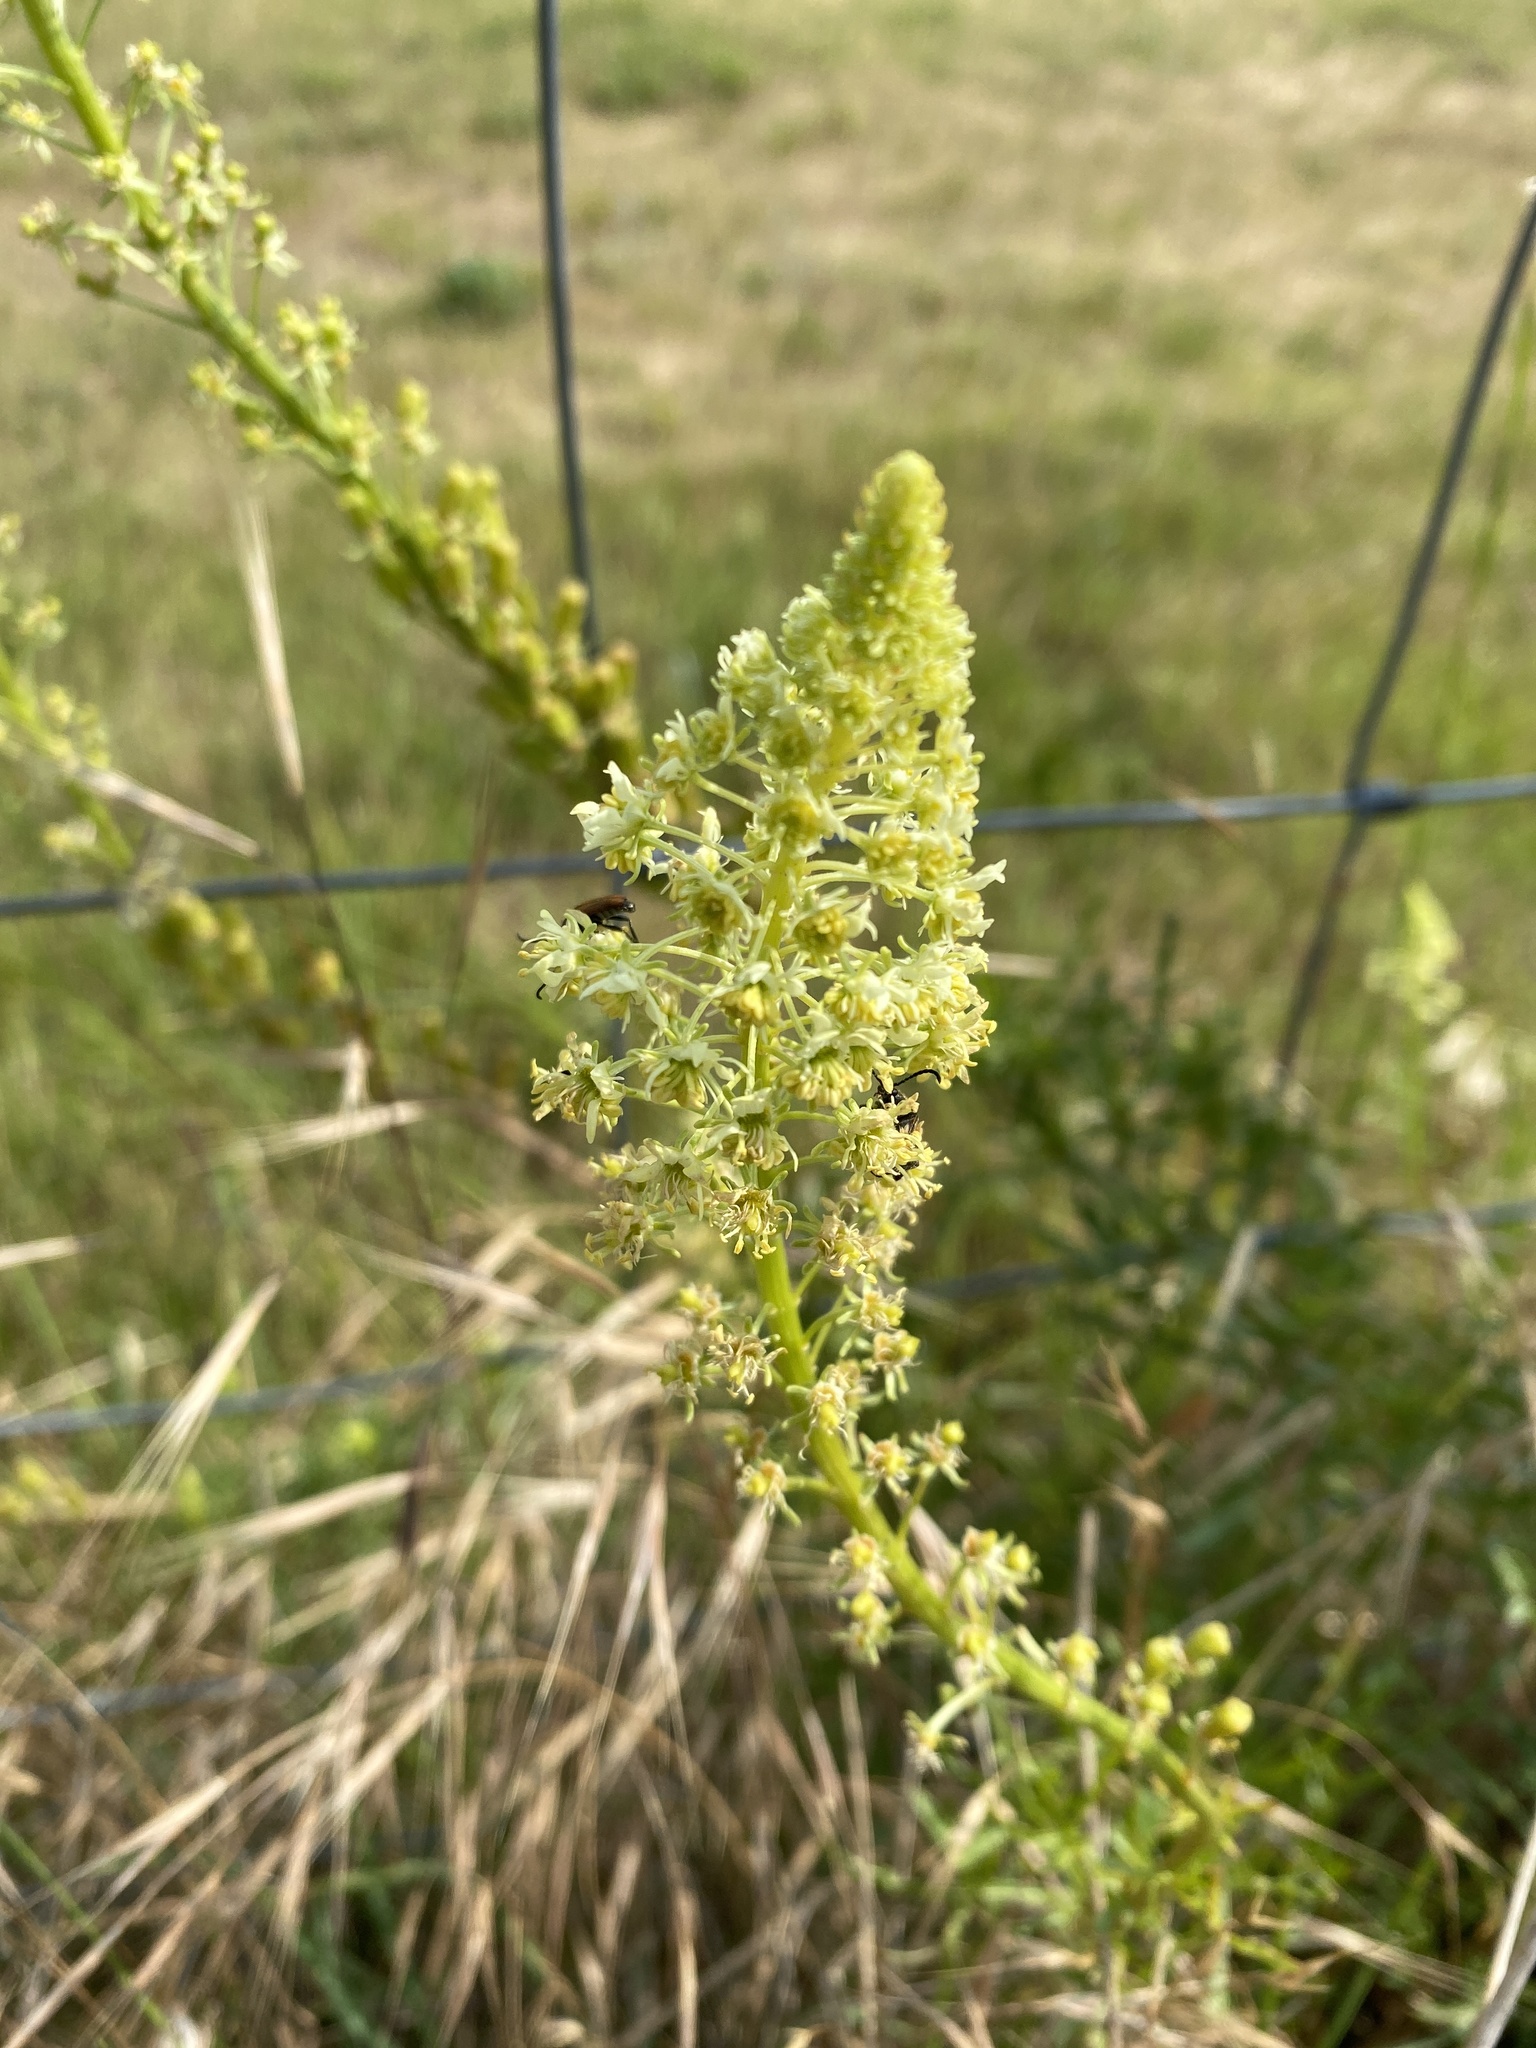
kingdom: Plantae
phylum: Tracheophyta
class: Magnoliopsida
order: Brassicales
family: Resedaceae
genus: Reseda
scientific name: Reseda lutea
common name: Wild mignonette
